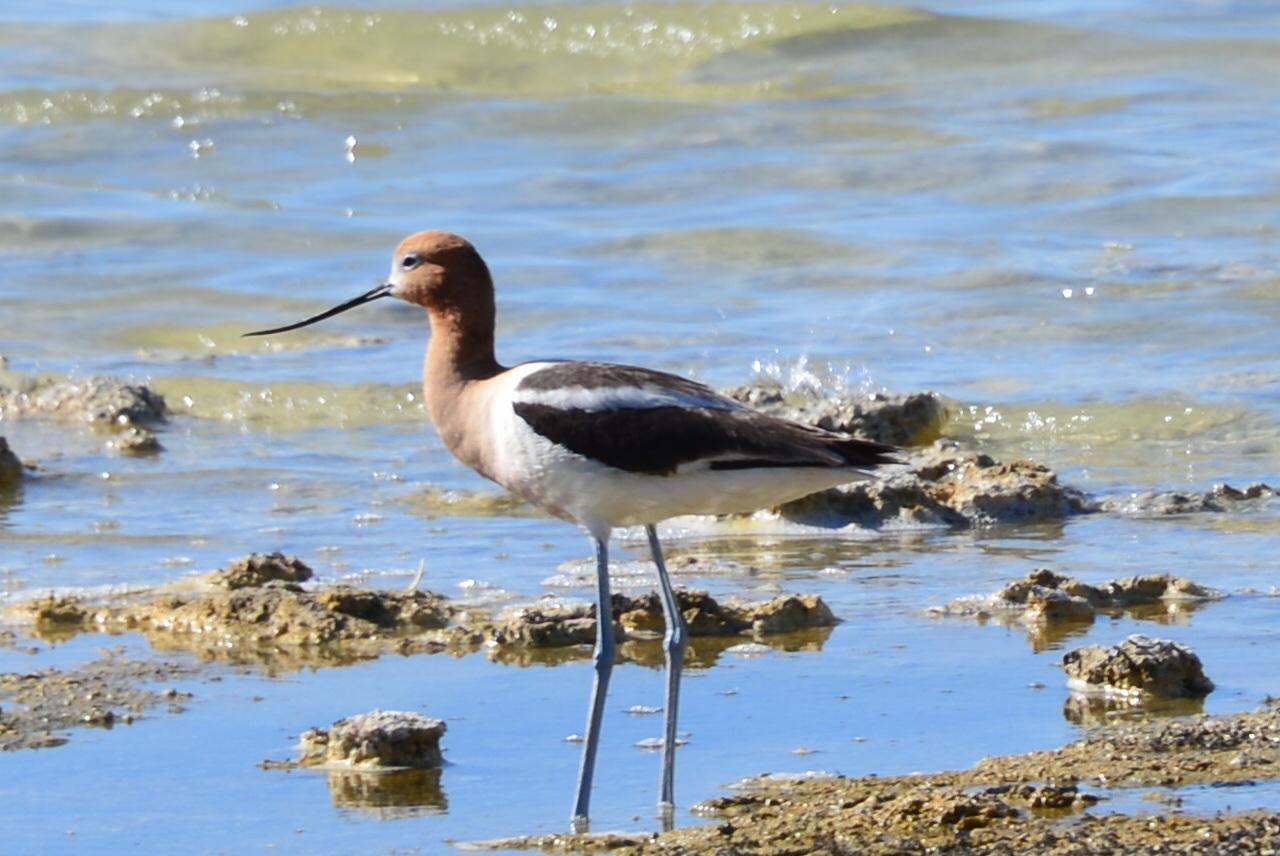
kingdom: Animalia
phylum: Chordata
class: Aves
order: Charadriiformes
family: Recurvirostridae
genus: Recurvirostra
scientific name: Recurvirostra americana
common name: American avocet
